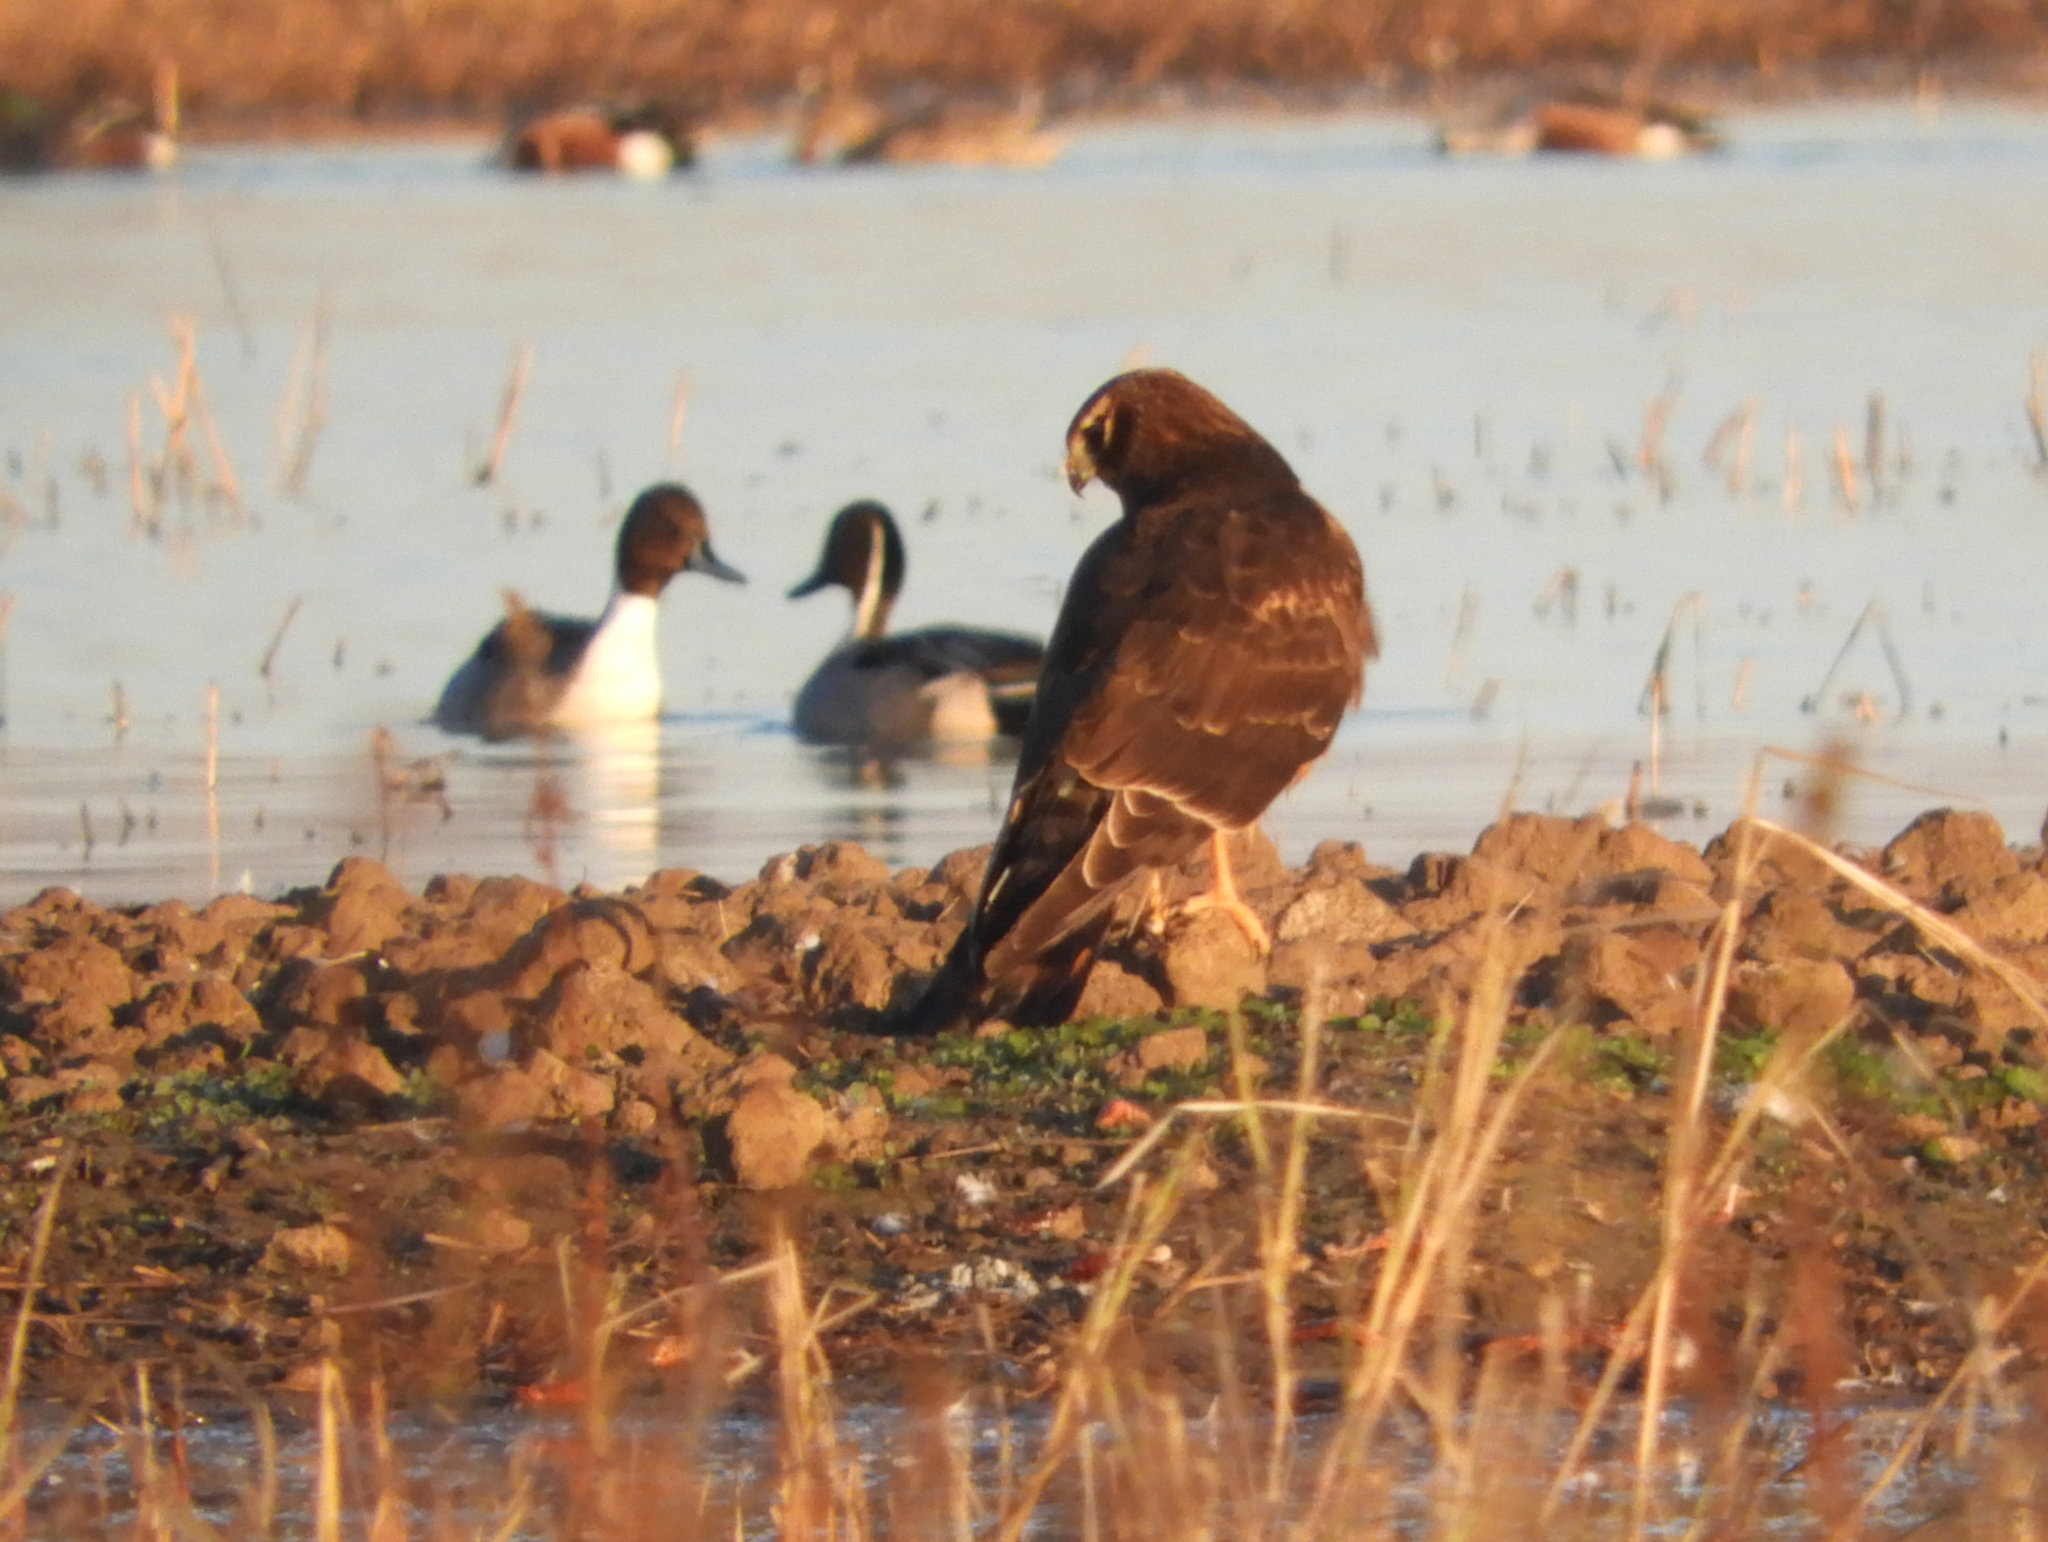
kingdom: Animalia
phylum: Chordata
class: Aves
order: Accipitriformes
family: Accipitridae
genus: Circus
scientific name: Circus cyaneus
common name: Hen harrier
